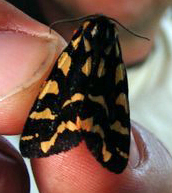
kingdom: Animalia
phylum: Arthropoda
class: Insecta
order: Lepidoptera
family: Erebidae
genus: Pararctia
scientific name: Pararctia lapponica
